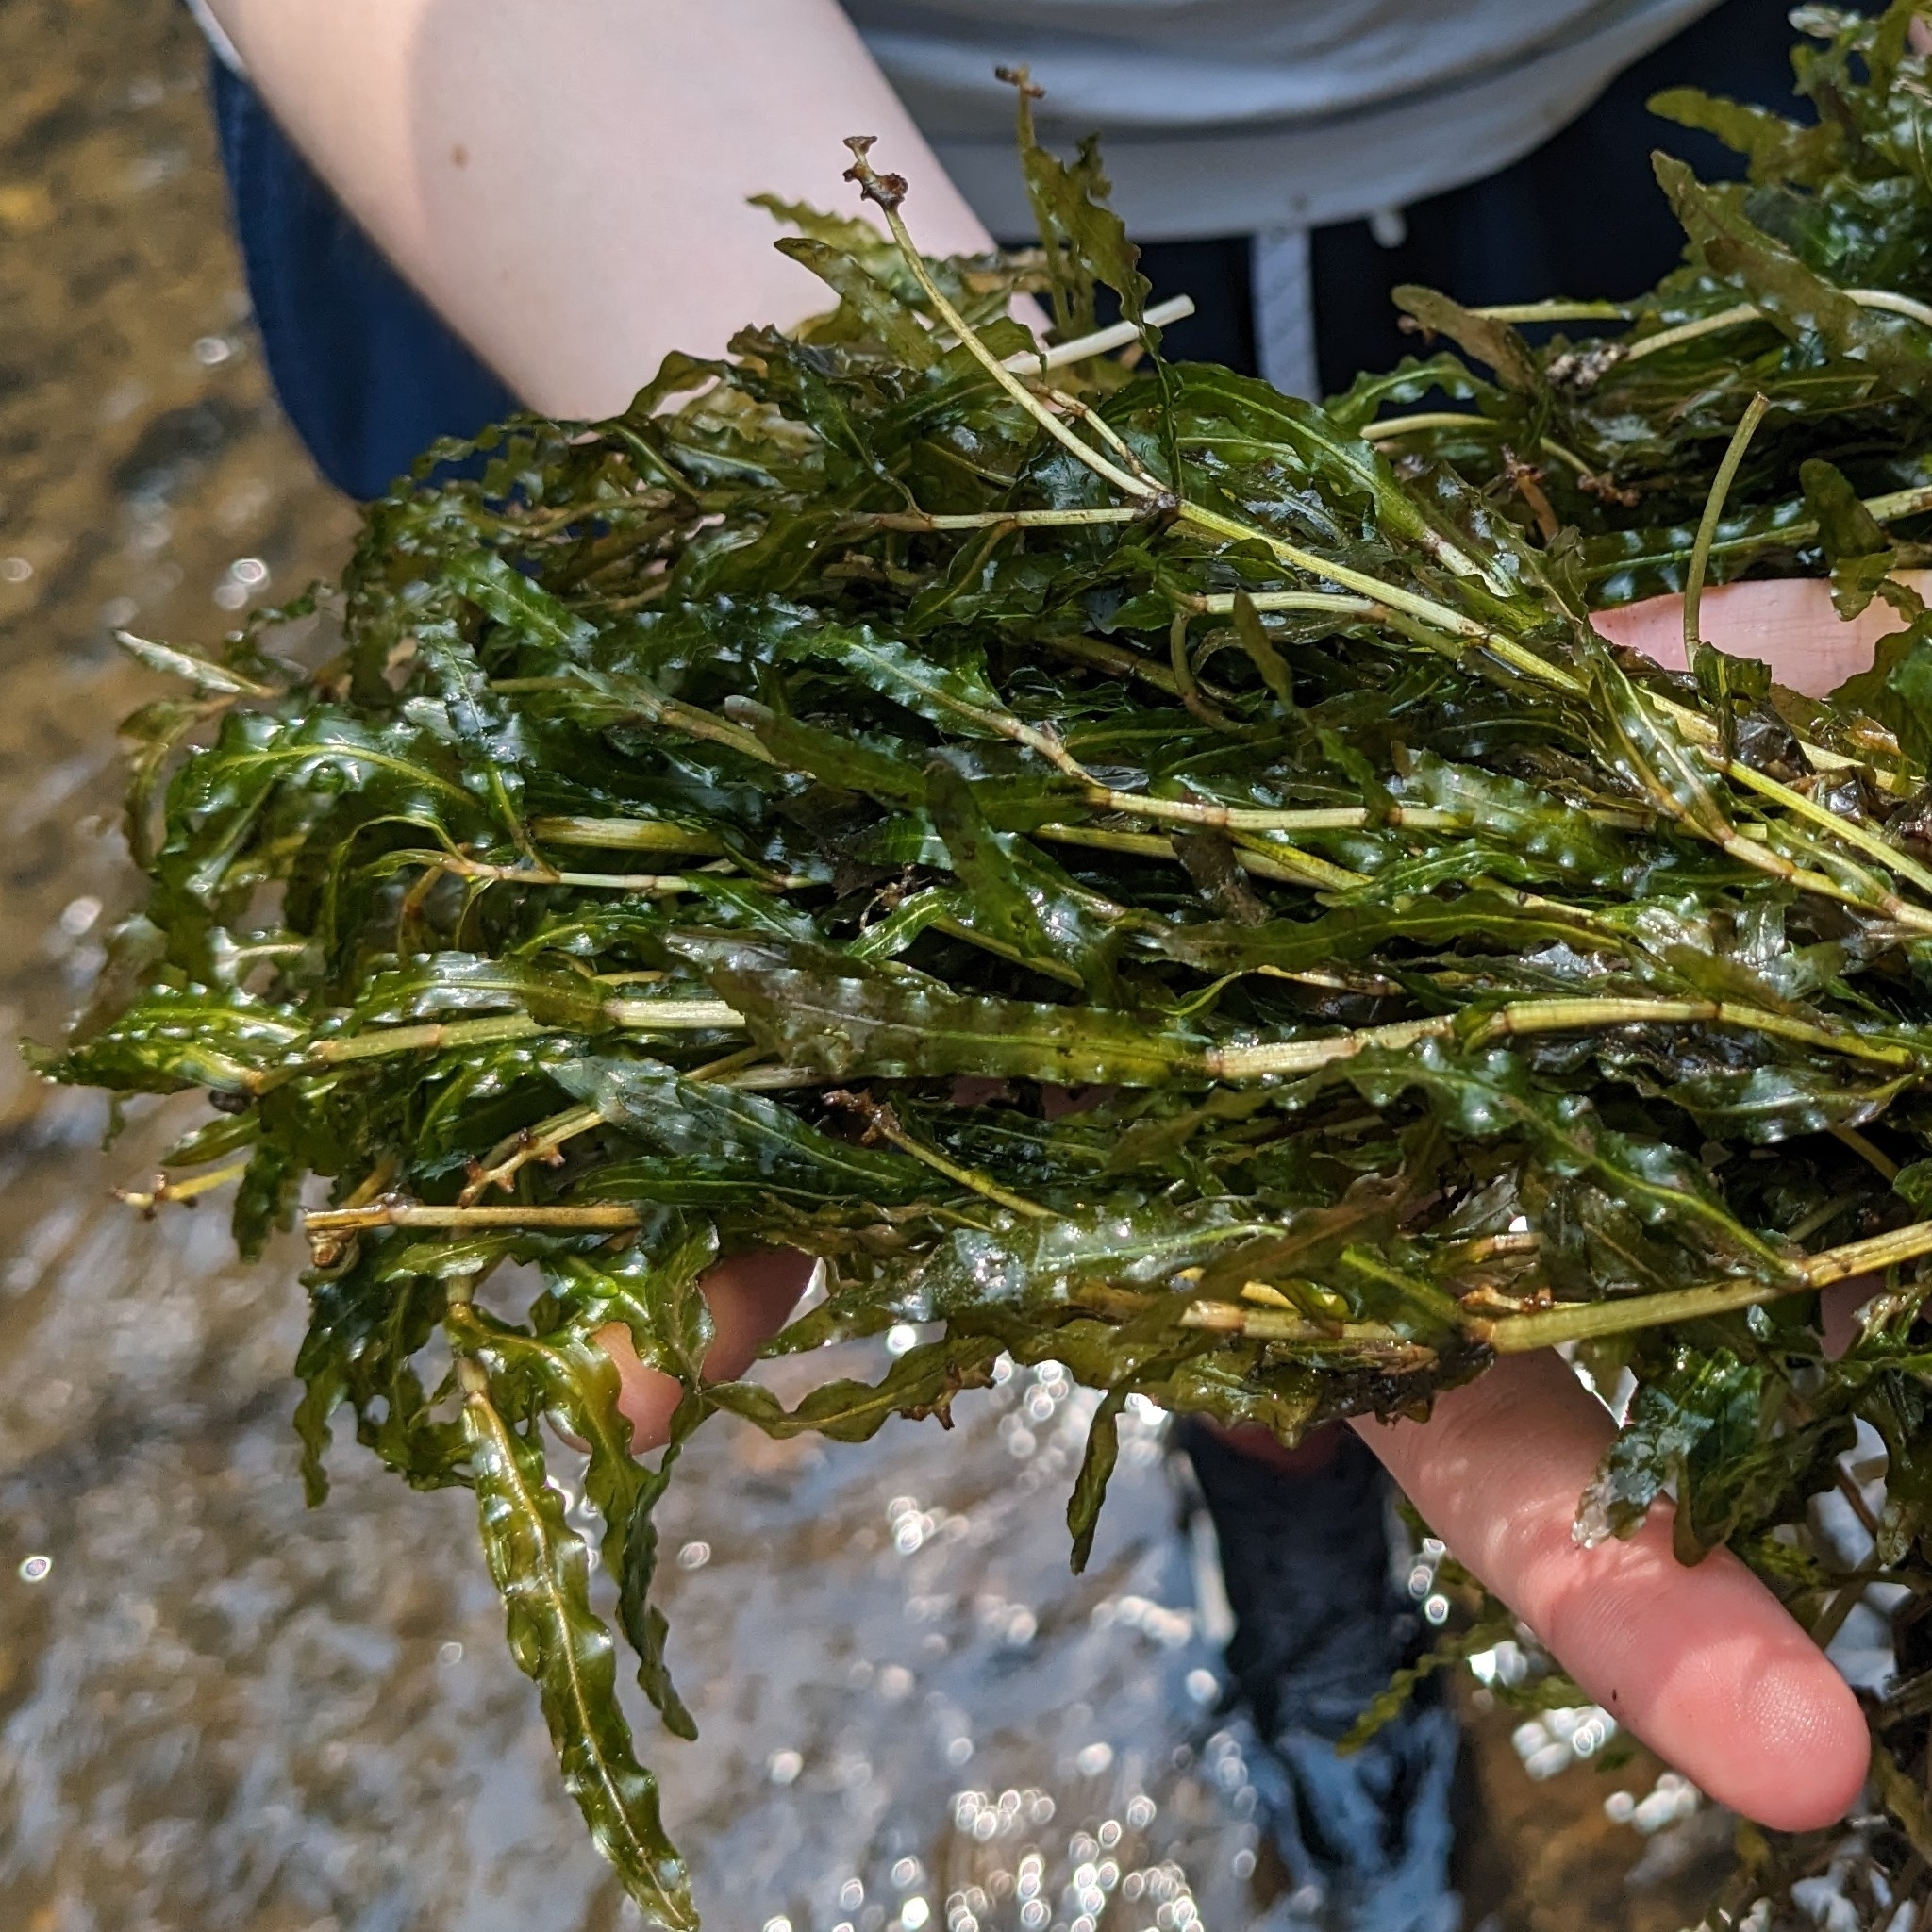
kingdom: Plantae
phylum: Tracheophyta
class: Liliopsida
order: Alismatales
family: Potamogetonaceae
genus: Potamogeton
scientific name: Potamogeton crispus
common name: Curled pondweed
